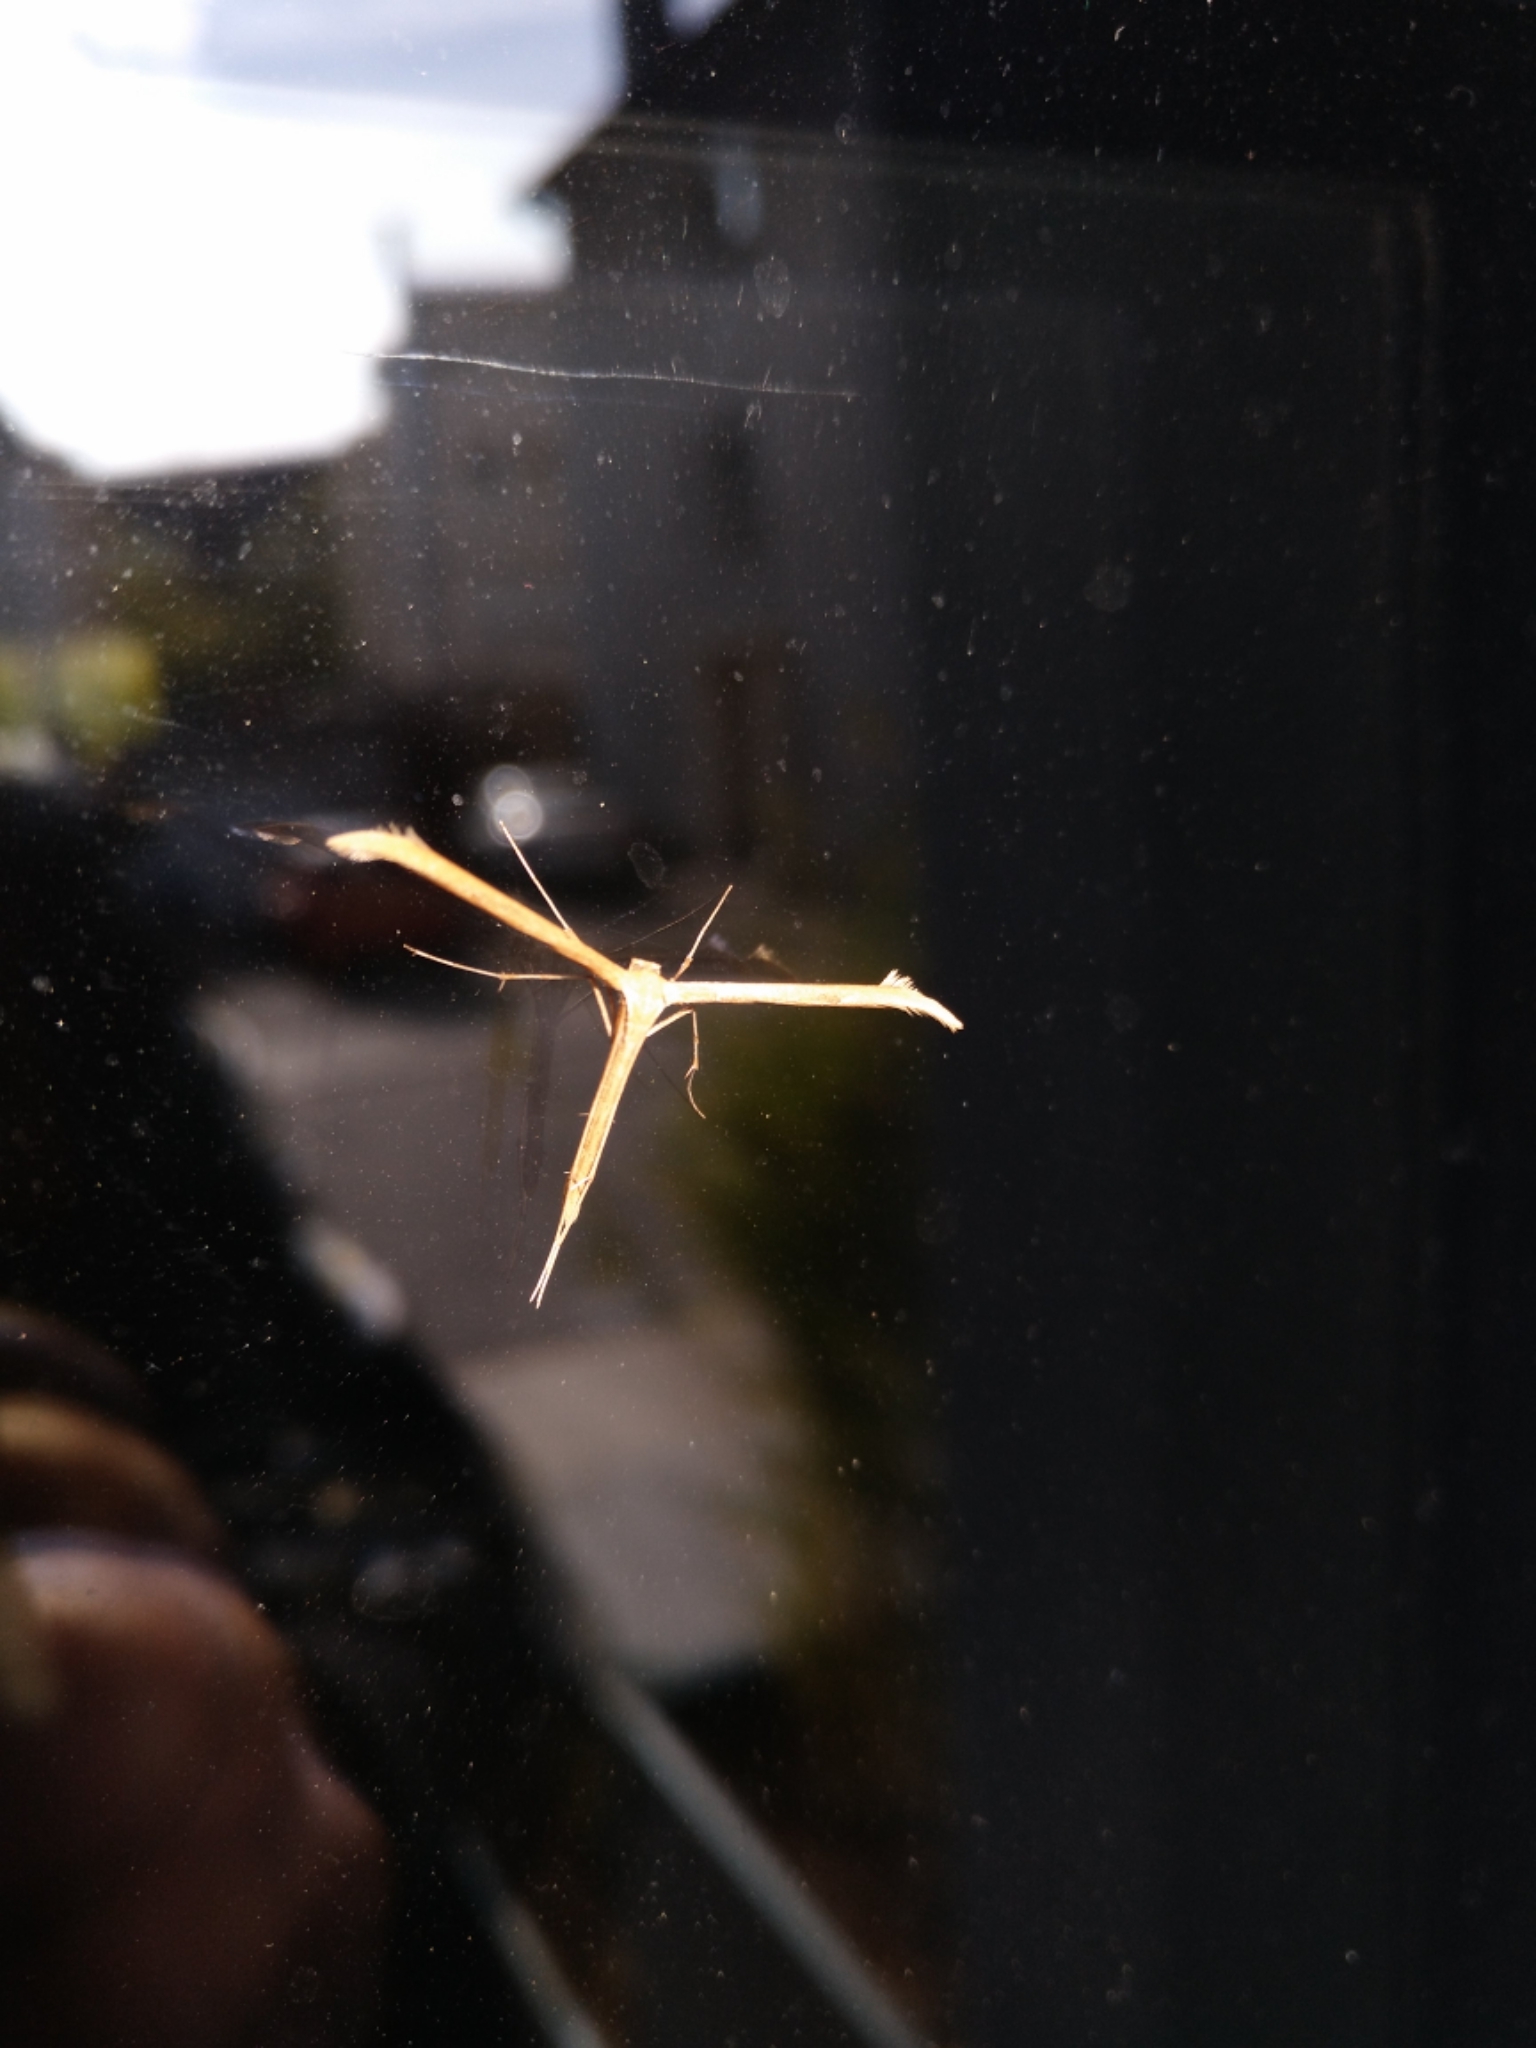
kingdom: Animalia
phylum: Arthropoda
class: Insecta
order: Lepidoptera
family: Pterophoridae
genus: Emmelina
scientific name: Emmelina monodactyla
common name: Common plume
